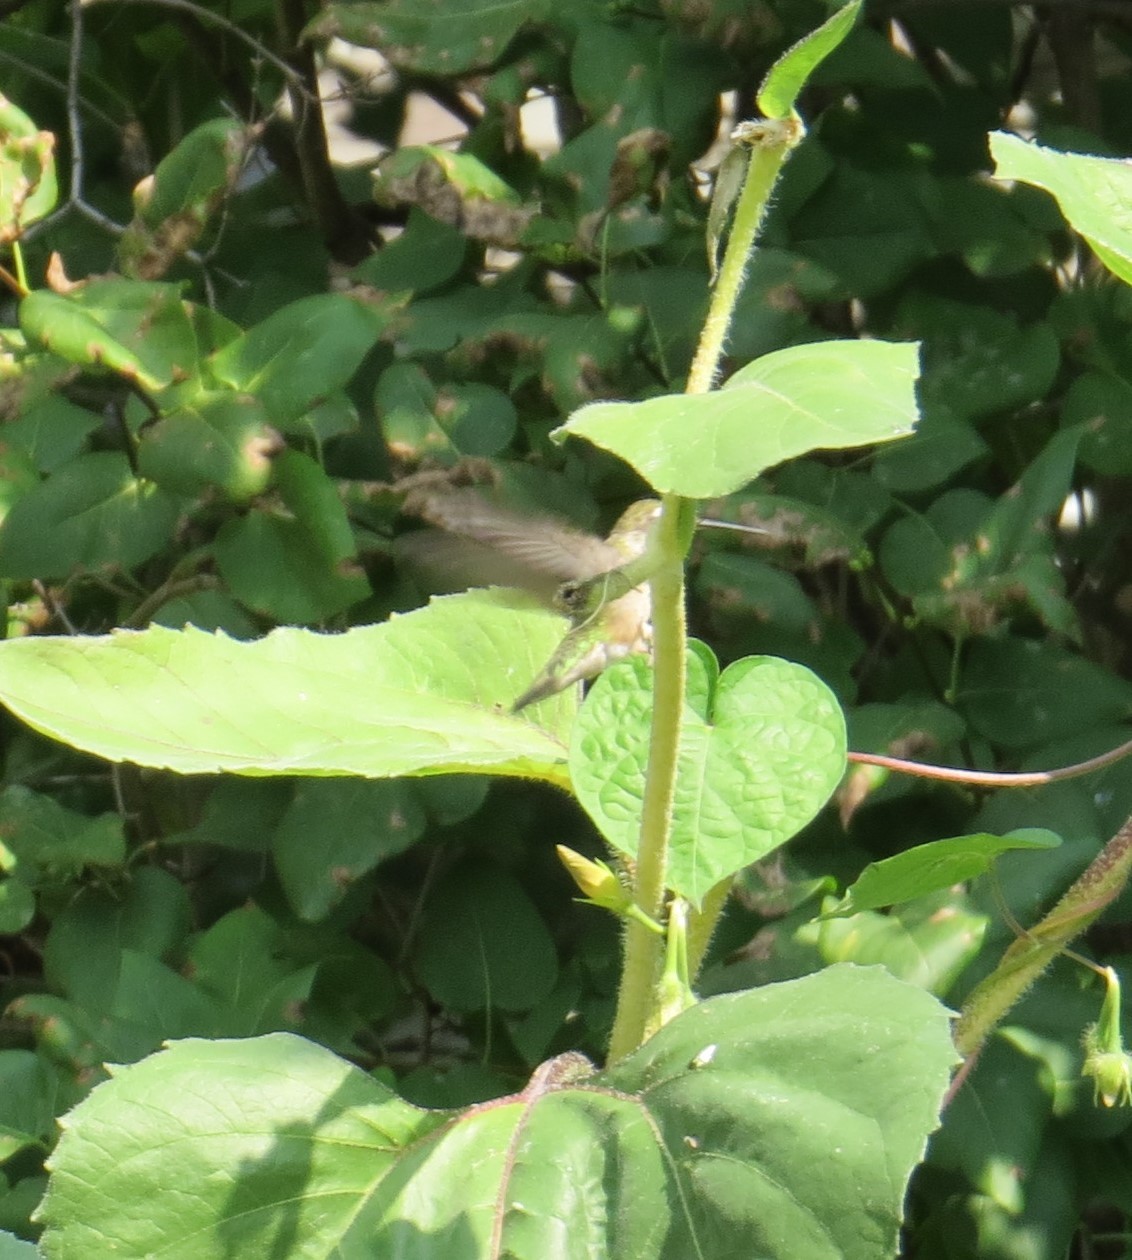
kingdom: Animalia
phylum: Chordata
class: Aves
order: Apodiformes
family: Trochilidae
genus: Archilochus
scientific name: Archilochus colubris
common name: Ruby-throated hummingbird
